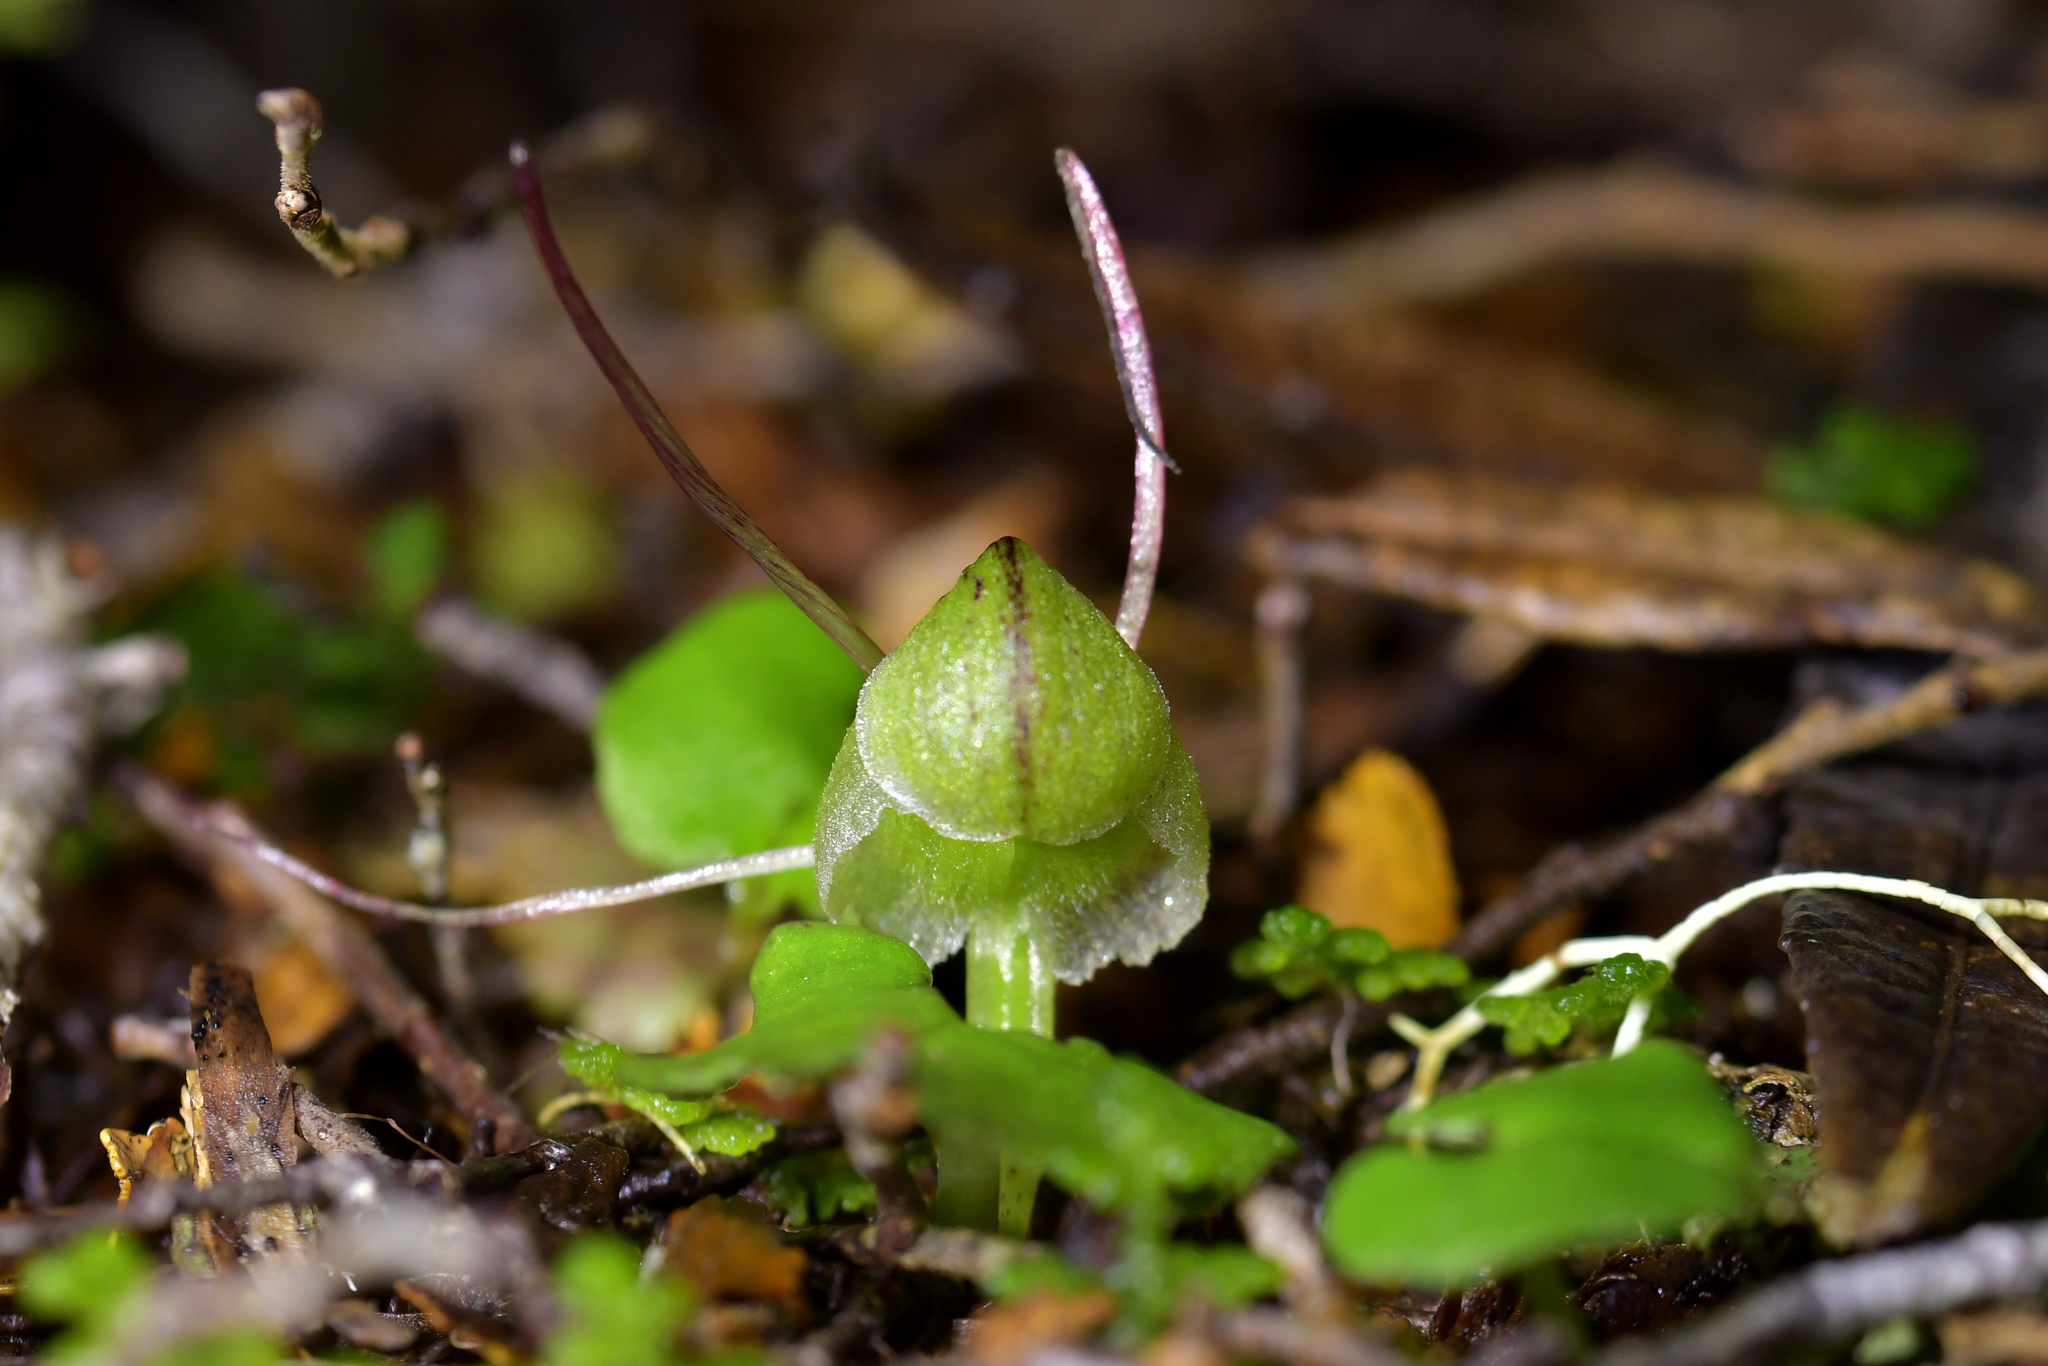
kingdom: Plantae
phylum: Tracheophyta
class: Liliopsida
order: Asparagales
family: Orchidaceae
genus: Corybas
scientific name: Corybas walliae
